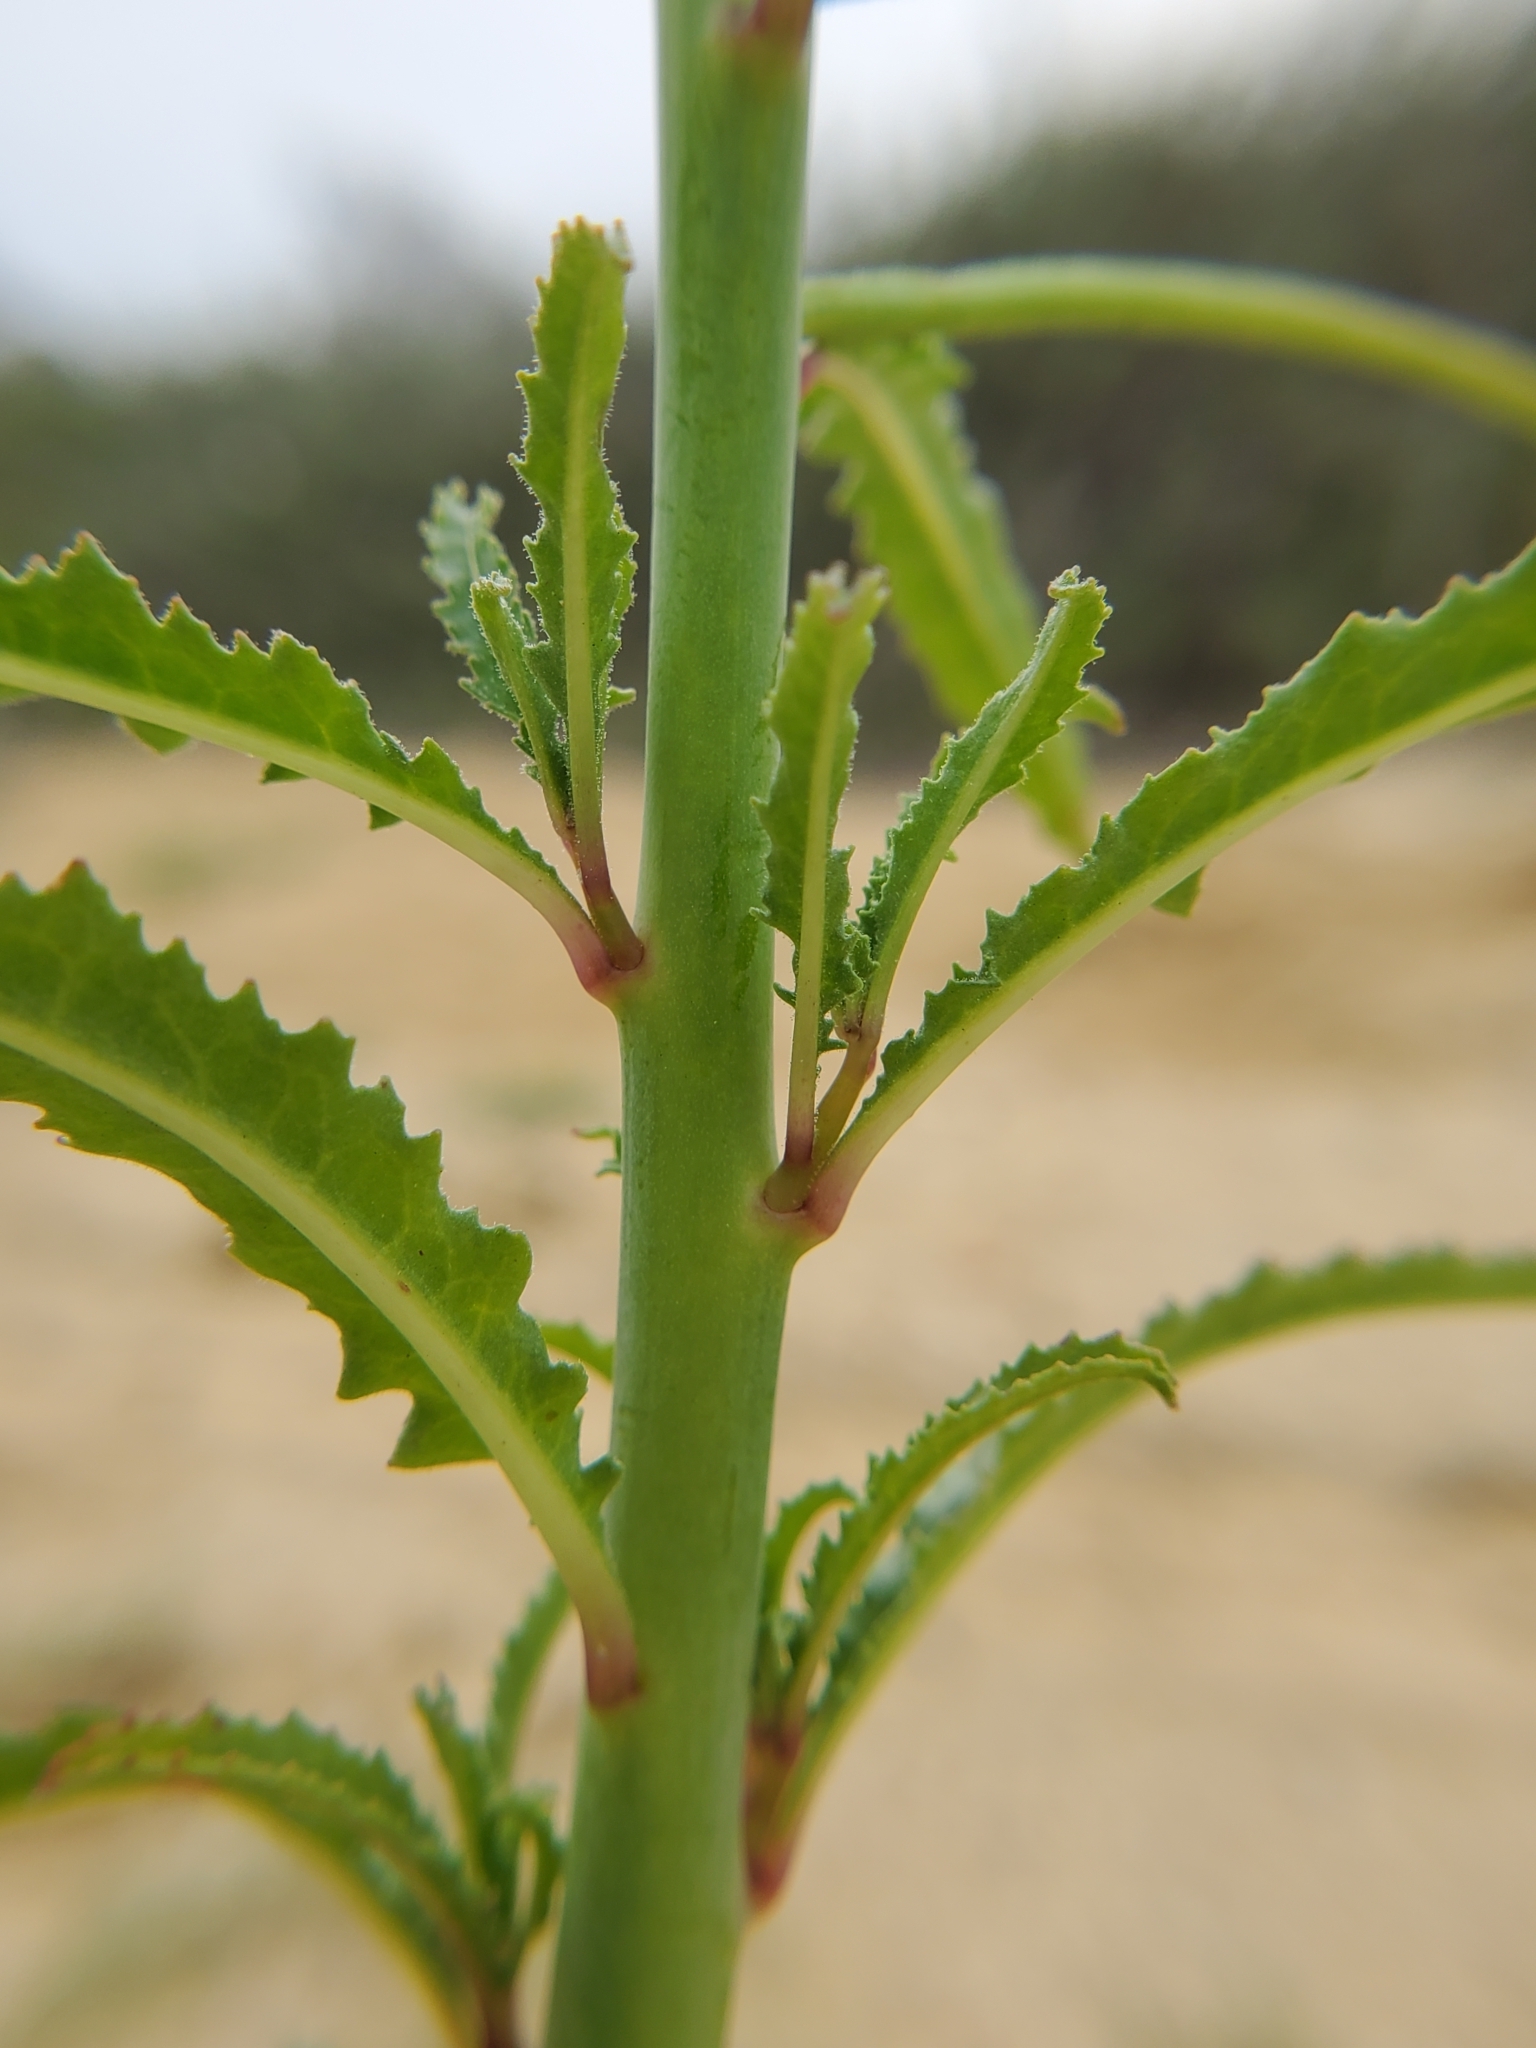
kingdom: Plantae
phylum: Tracheophyta
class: Magnoliopsida
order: Myrtales
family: Onagraceae
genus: Eulobus
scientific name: Eulobus californicus
